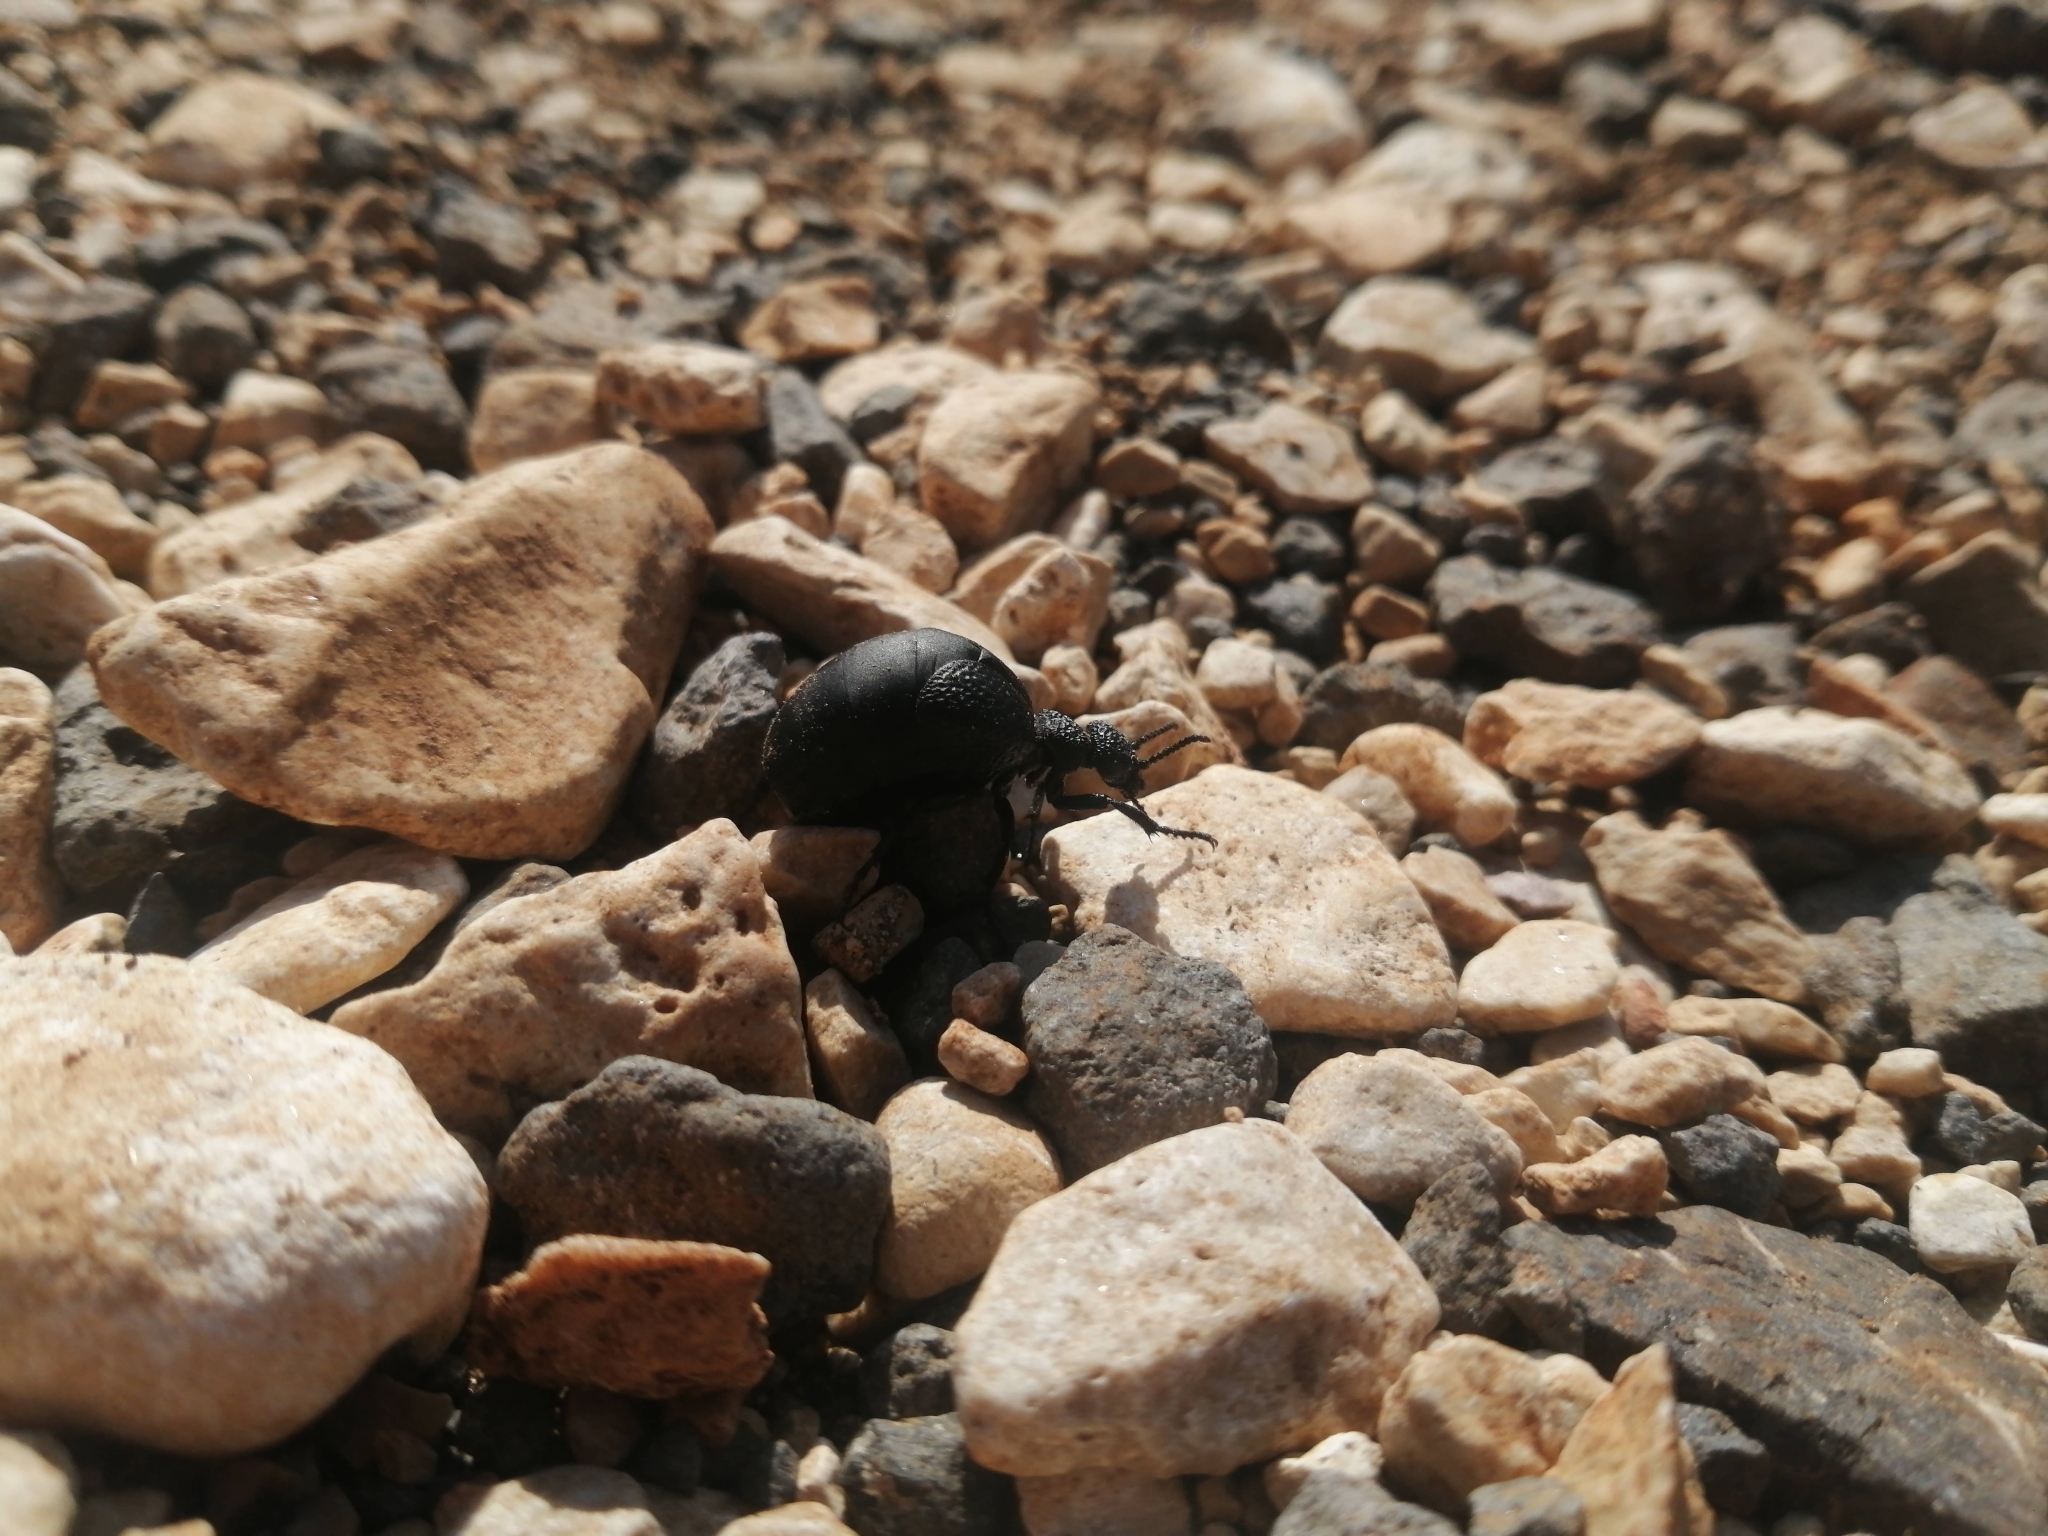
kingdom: Animalia
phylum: Arthropoda
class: Insecta
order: Coleoptera
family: Meloidae
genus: Meloe
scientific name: Meloe tuccius
